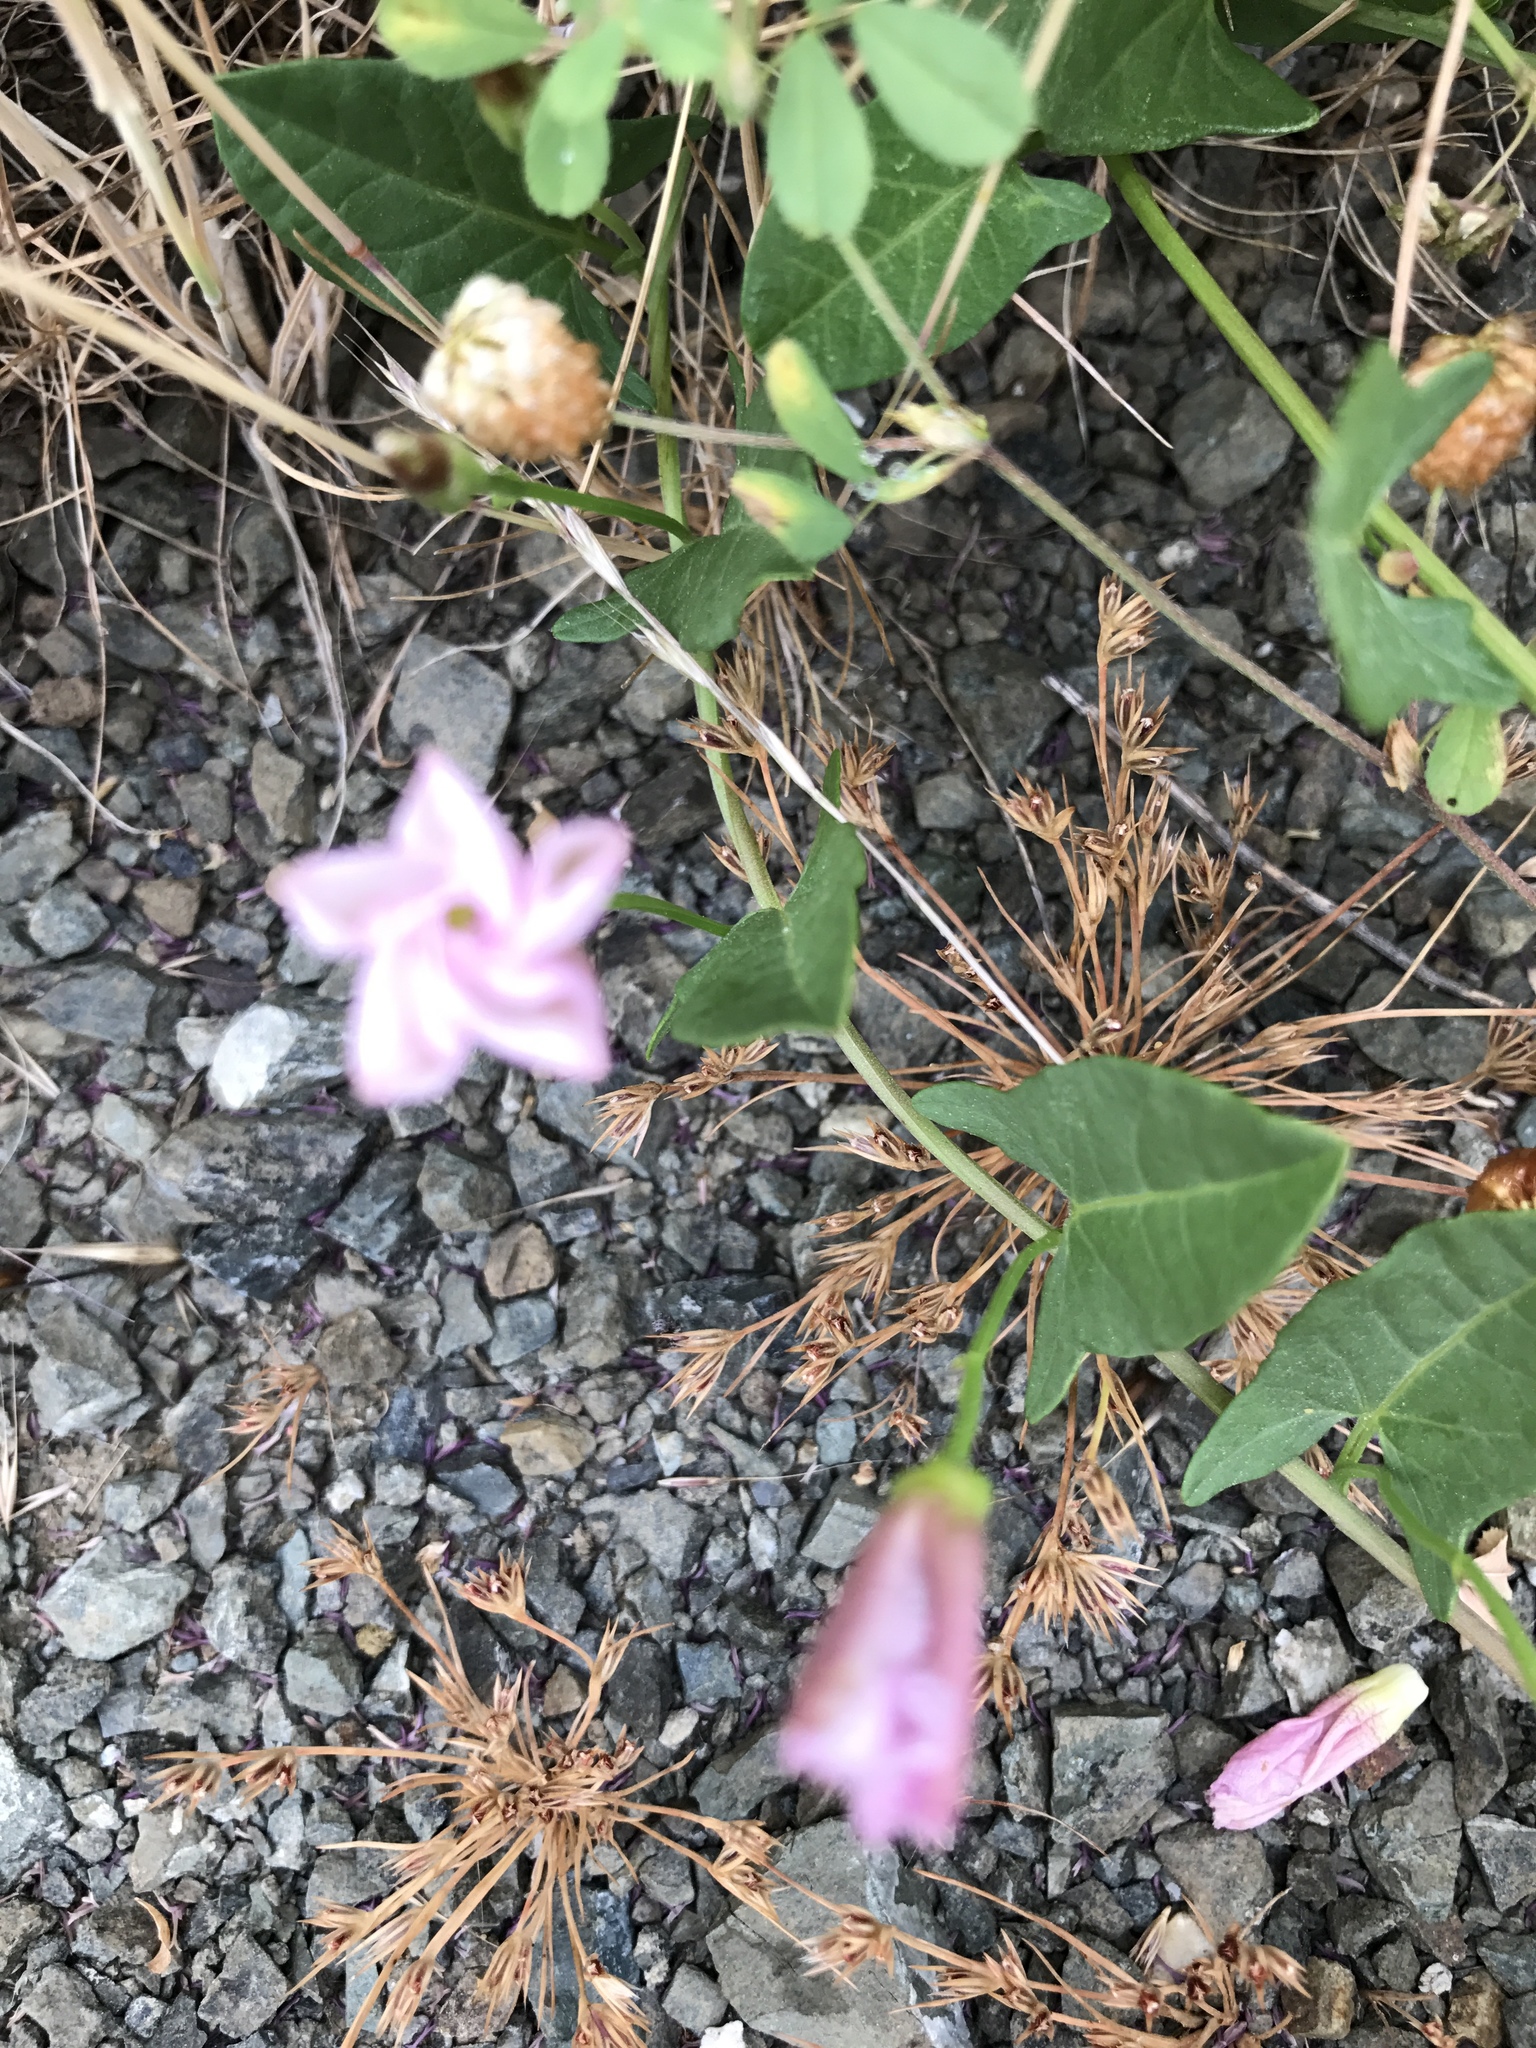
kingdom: Plantae
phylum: Tracheophyta
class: Magnoliopsida
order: Solanales
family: Convolvulaceae
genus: Convolvulus
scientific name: Convolvulus arvensis
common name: Field bindweed
